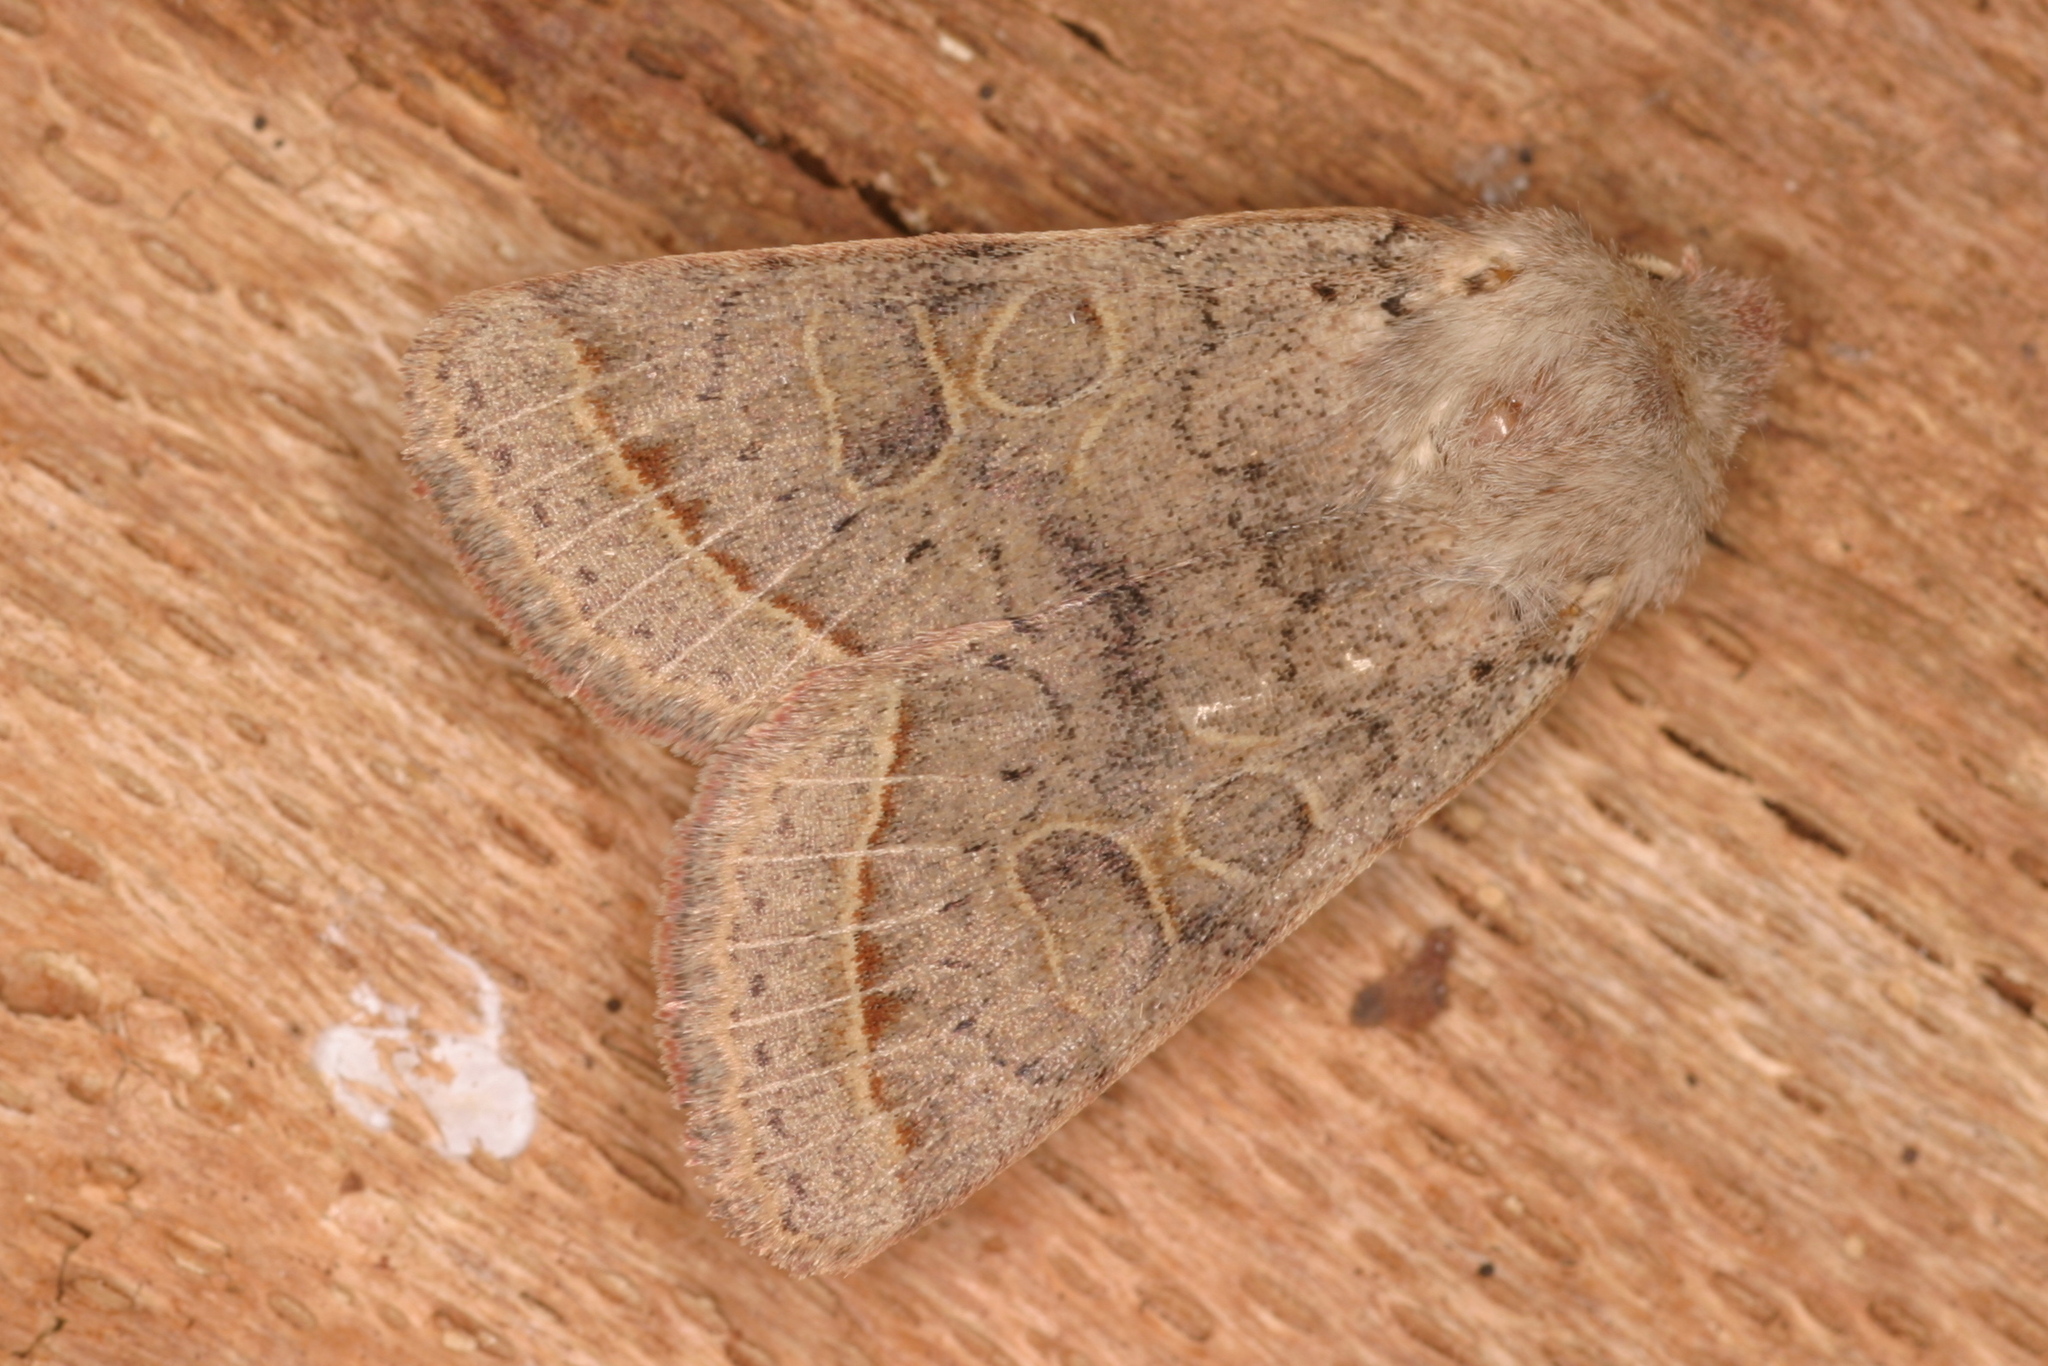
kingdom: Animalia
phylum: Arthropoda
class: Insecta
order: Lepidoptera
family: Noctuidae
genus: Orthosia
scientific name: Orthosia cerasi
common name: Common quaker
